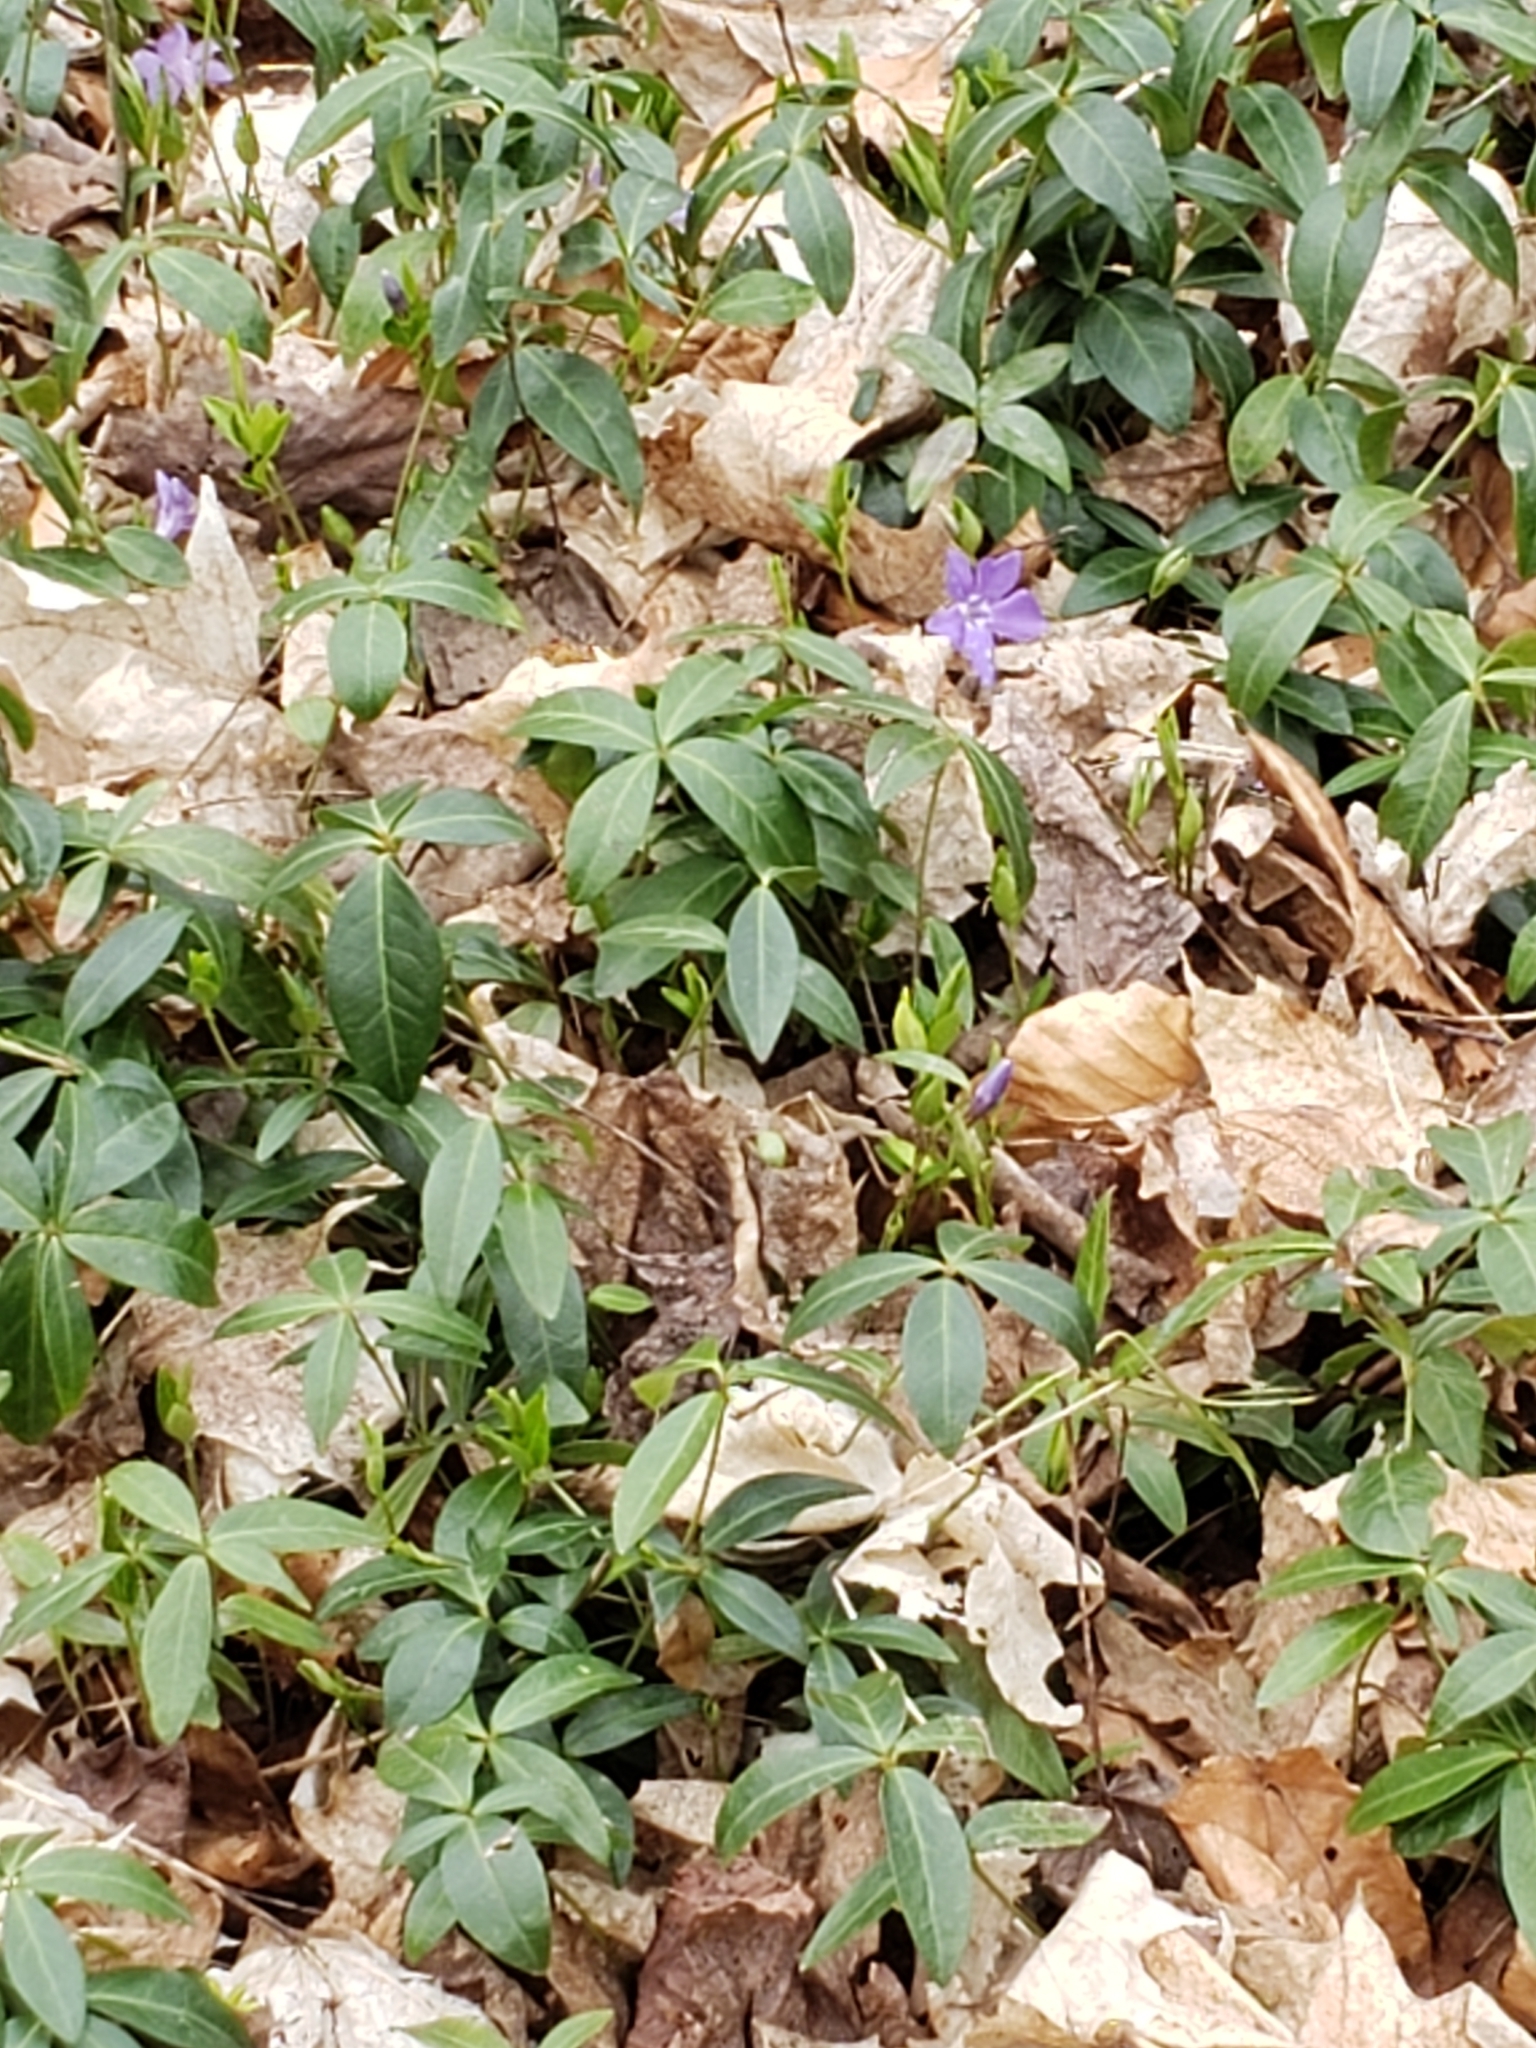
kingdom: Plantae
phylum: Tracheophyta
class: Magnoliopsida
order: Gentianales
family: Apocynaceae
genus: Vinca
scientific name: Vinca minor
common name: Lesser periwinkle
